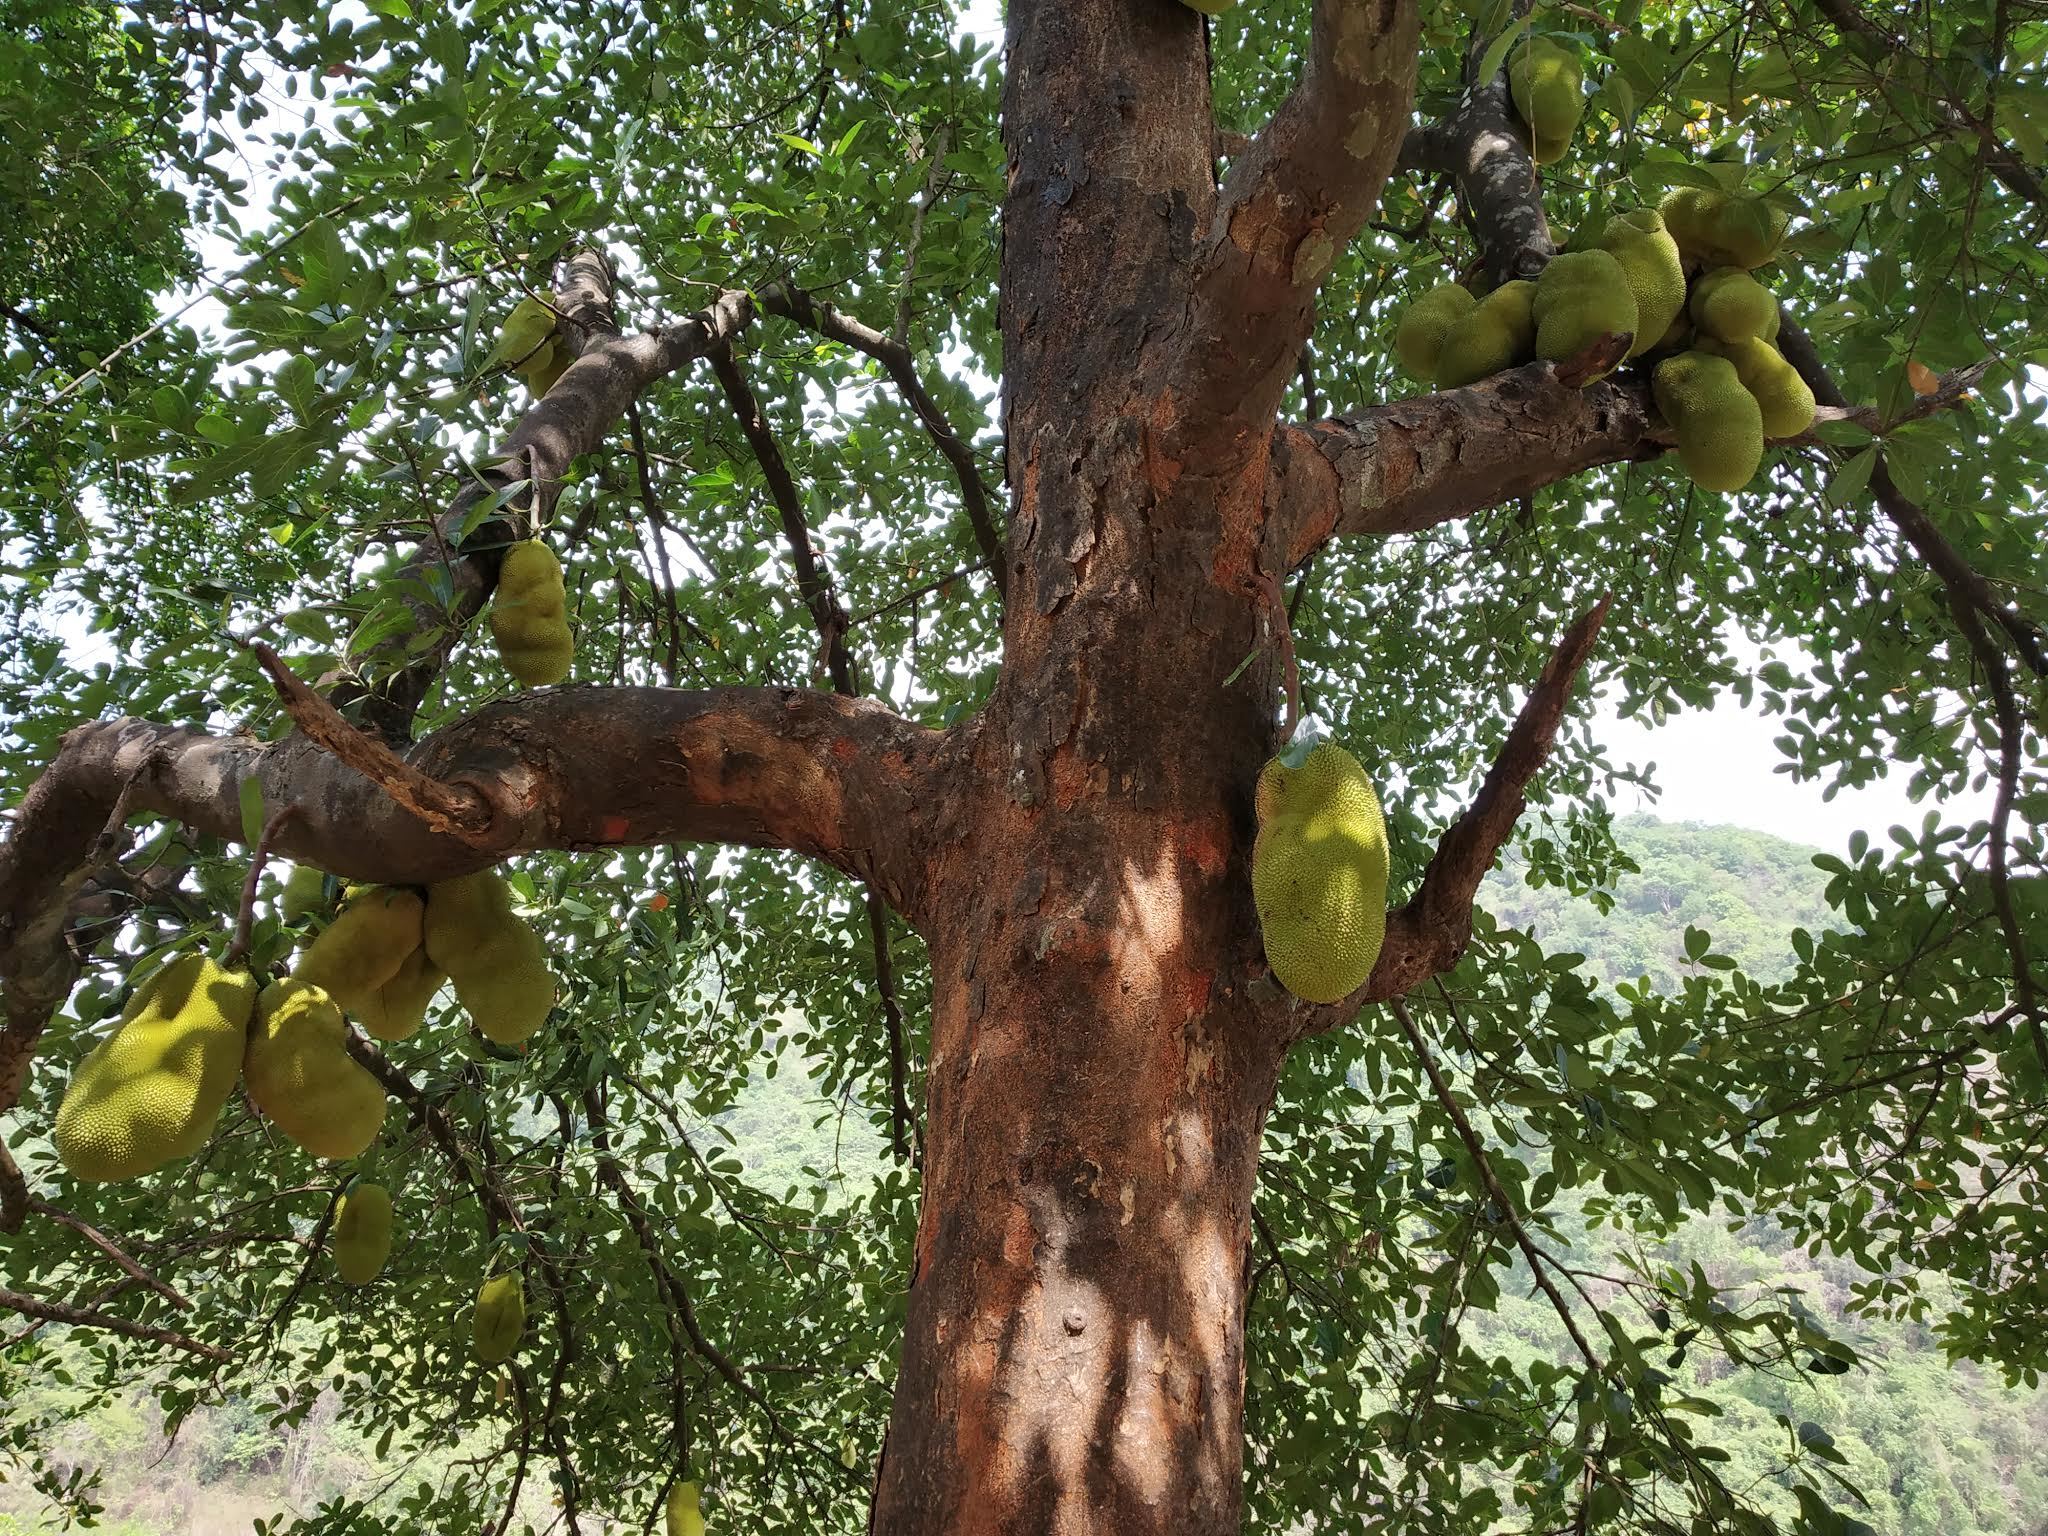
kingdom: Plantae
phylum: Tracheophyta
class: Magnoliopsida
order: Rosales
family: Moraceae
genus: Artocarpus
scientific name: Artocarpus heterophyllus
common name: Jackfruit
